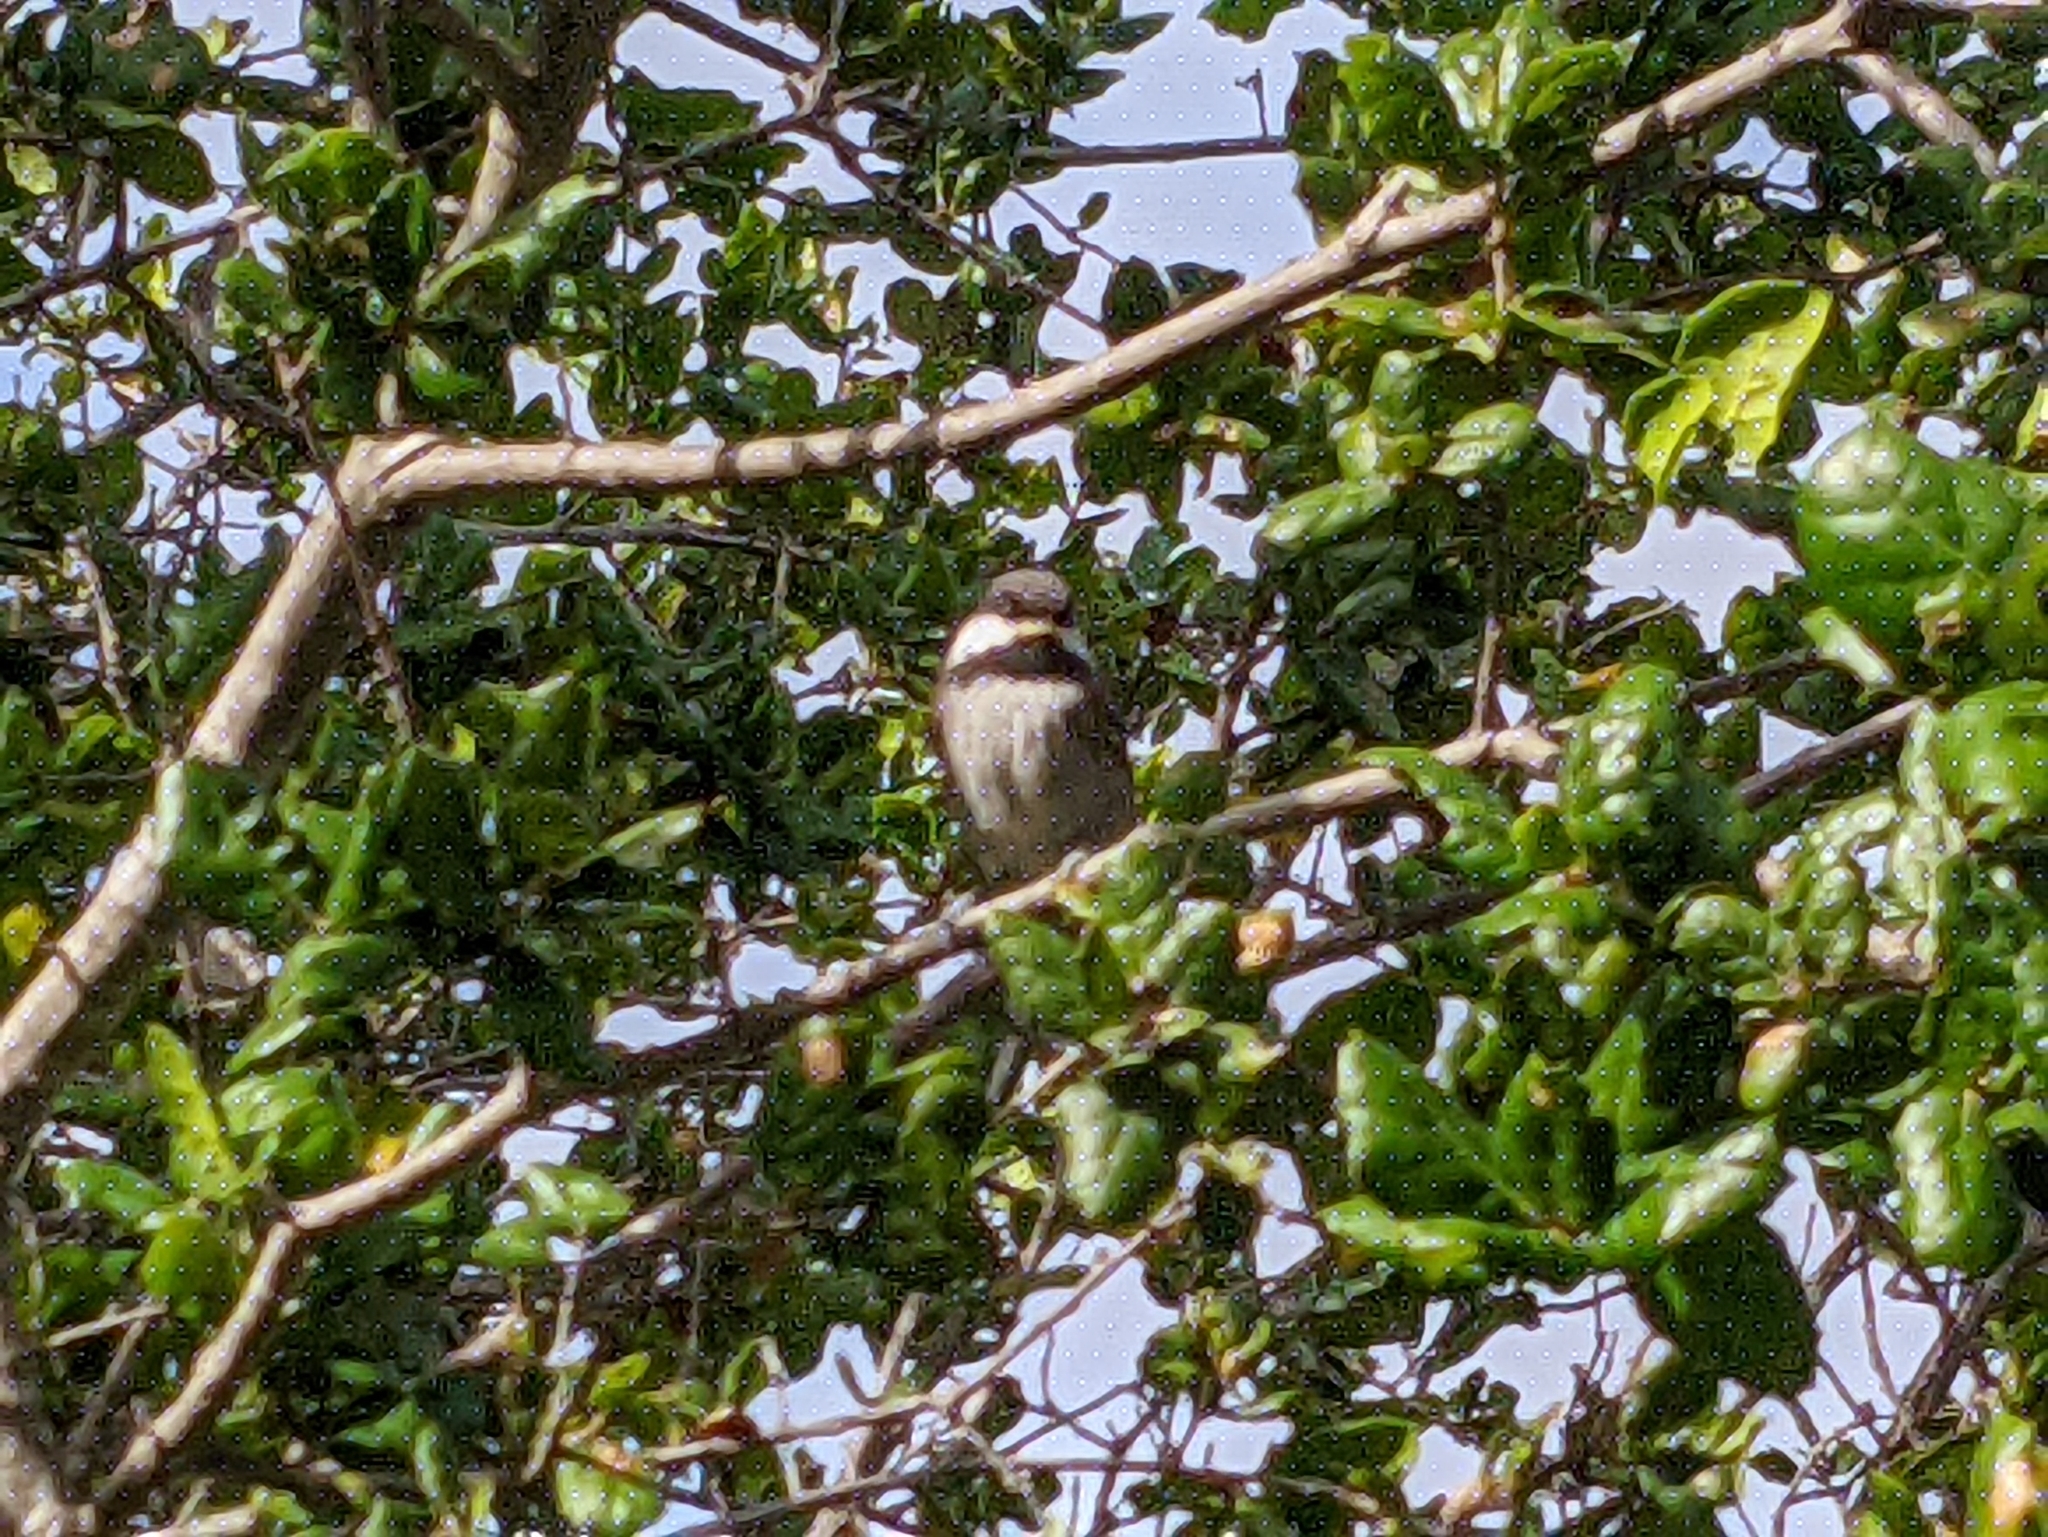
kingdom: Animalia
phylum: Chordata
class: Aves
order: Passeriformes
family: Paridae
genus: Poecile
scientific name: Poecile rufescens
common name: Chestnut-backed chickadee
